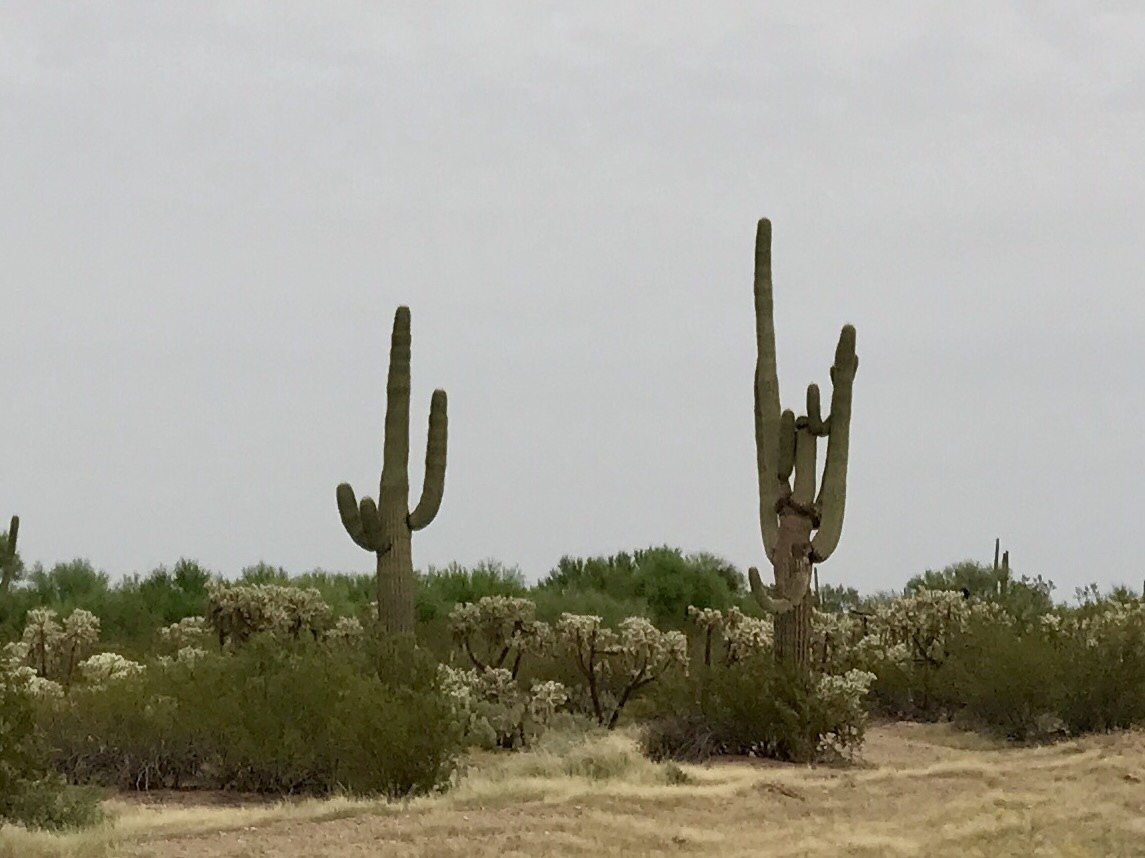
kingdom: Plantae
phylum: Tracheophyta
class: Magnoliopsida
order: Caryophyllales
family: Cactaceae
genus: Carnegiea
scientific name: Carnegiea gigantea
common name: Saguaro
